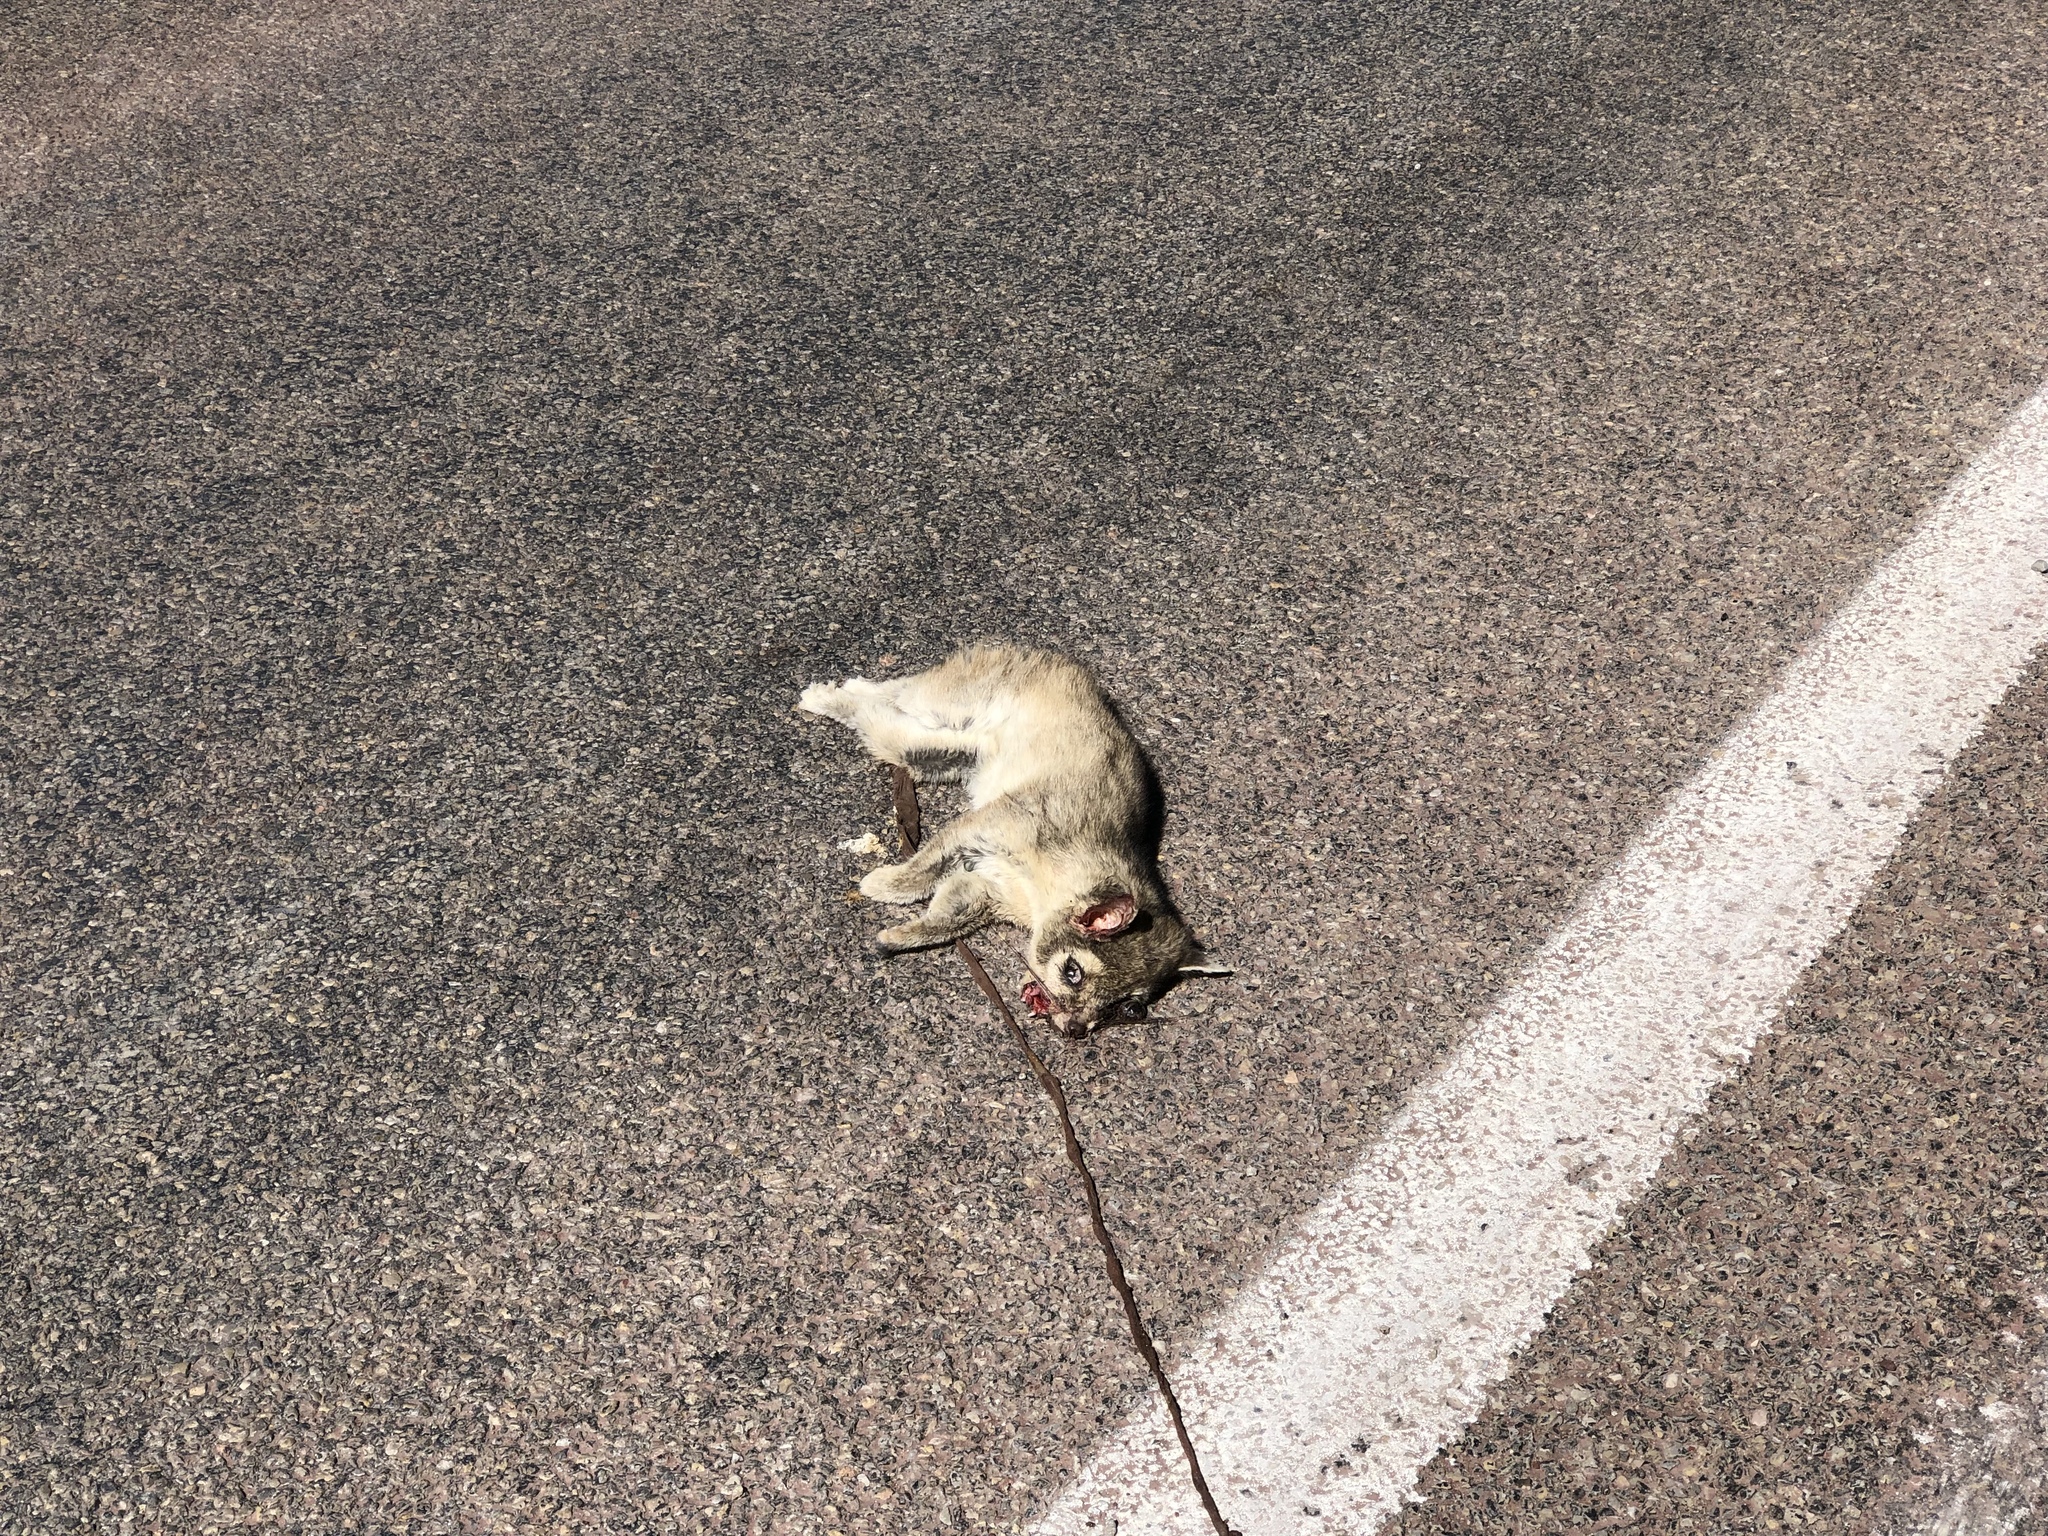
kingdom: Animalia
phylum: Chordata
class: Mammalia
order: Carnivora
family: Procyonidae
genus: Bassariscus
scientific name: Bassariscus astutus
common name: Ringtail
